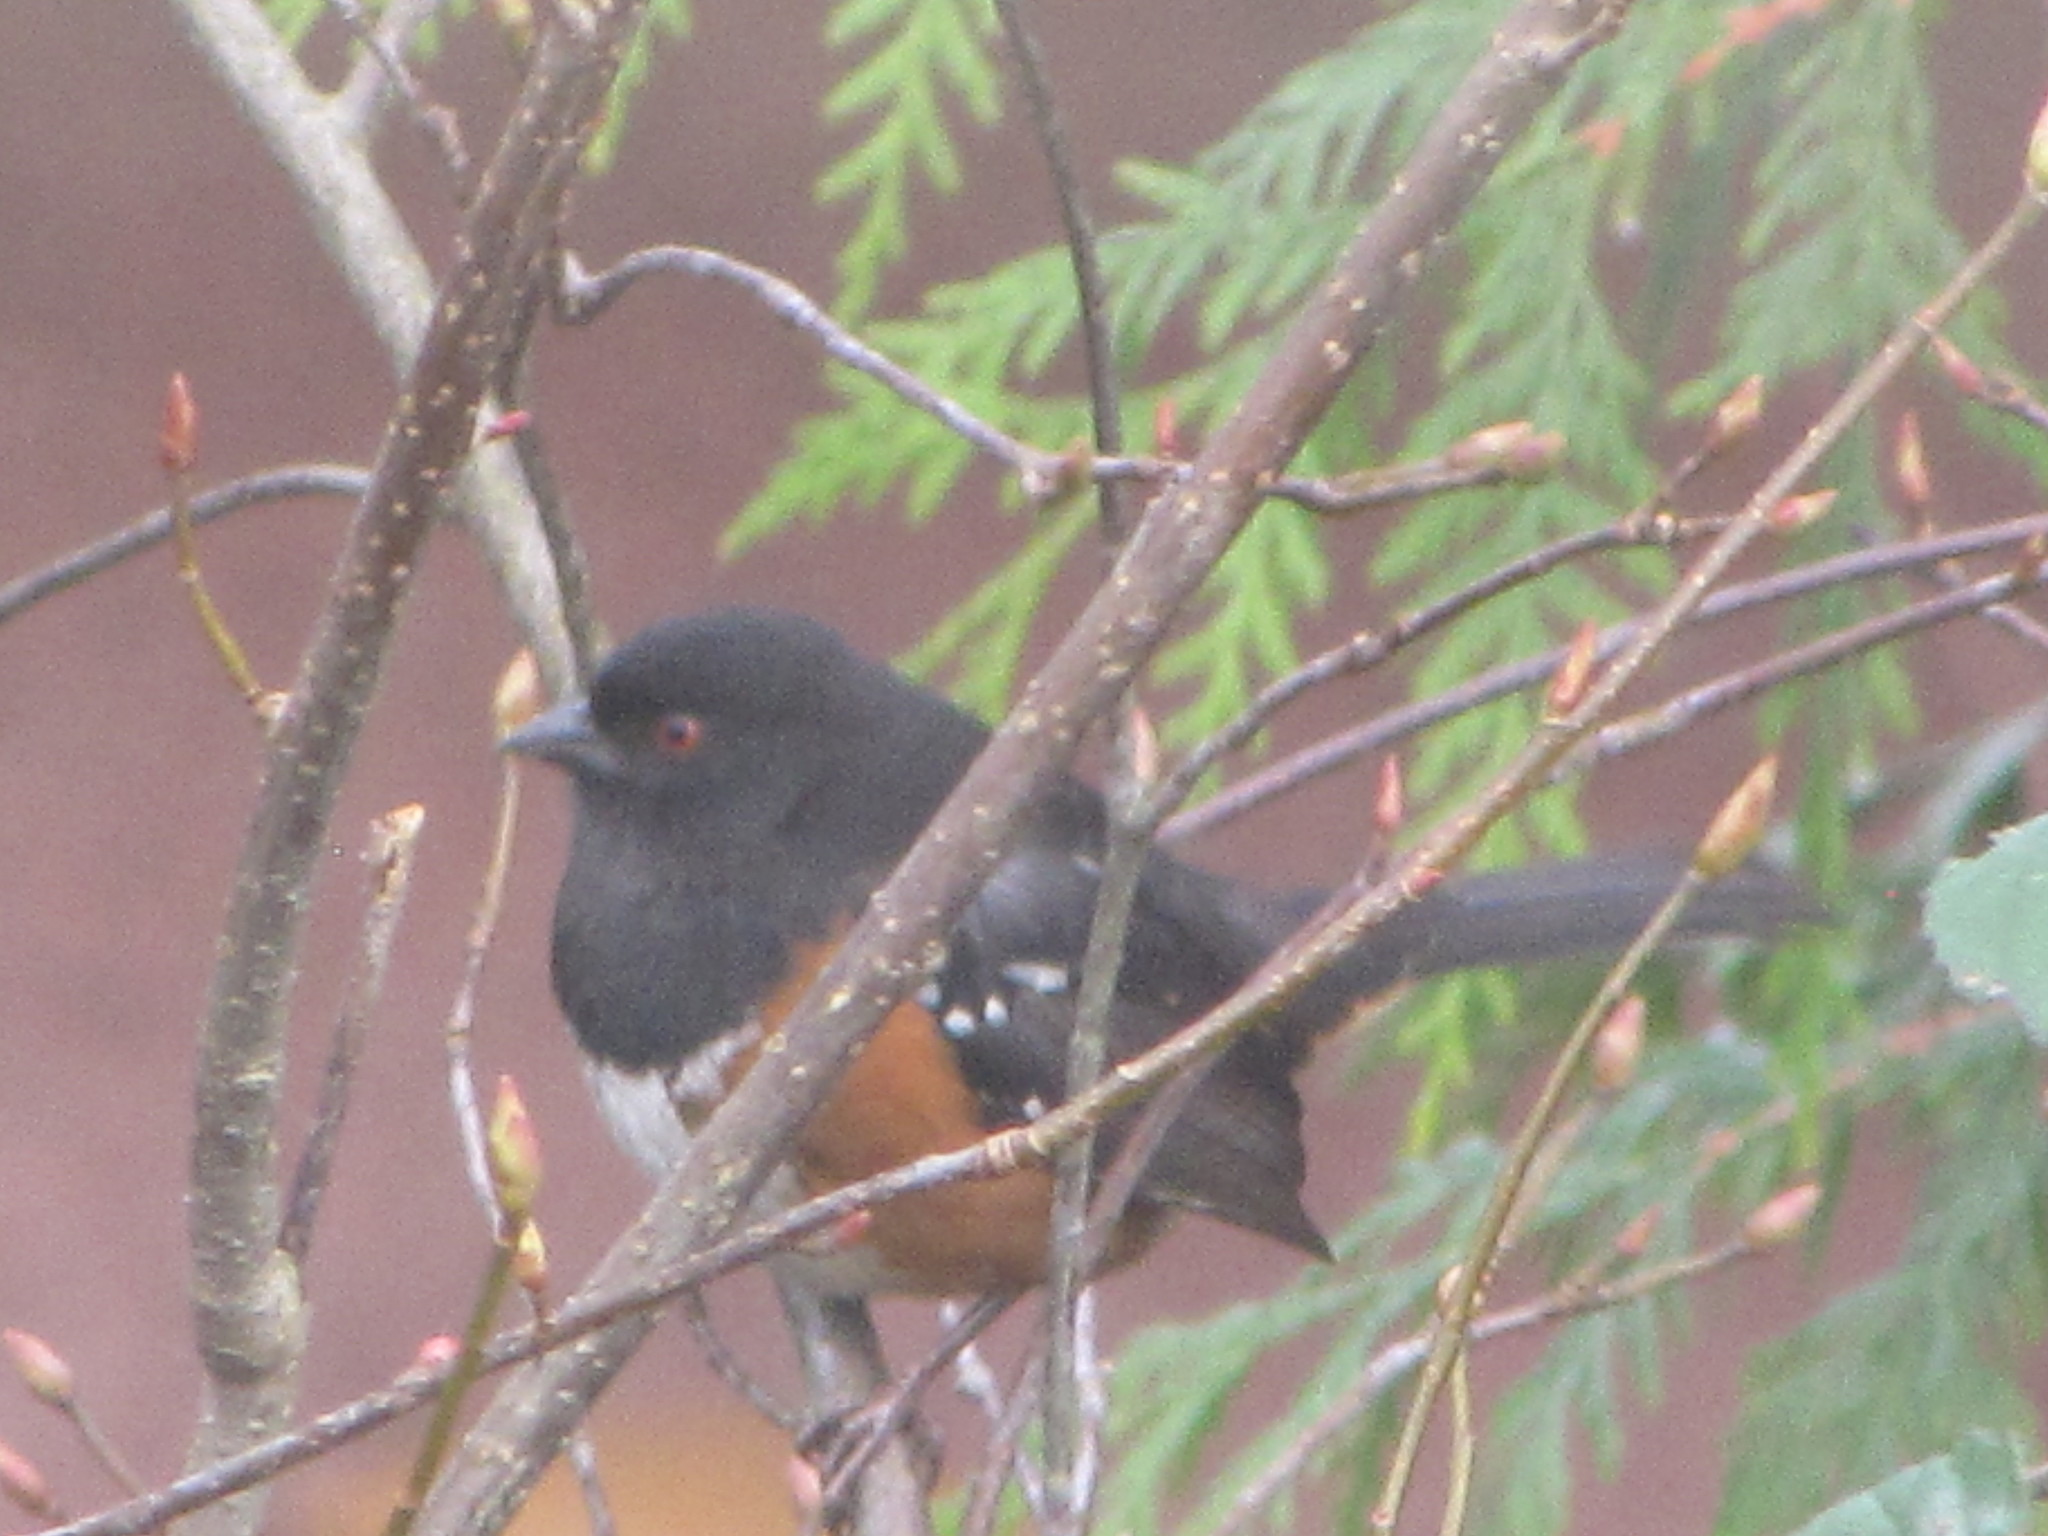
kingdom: Animalia
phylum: Chordata
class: Aves
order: Passeriformes
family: Passerellidae
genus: Pipilo
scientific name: Pipilo maculatus
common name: Spotted towhee
